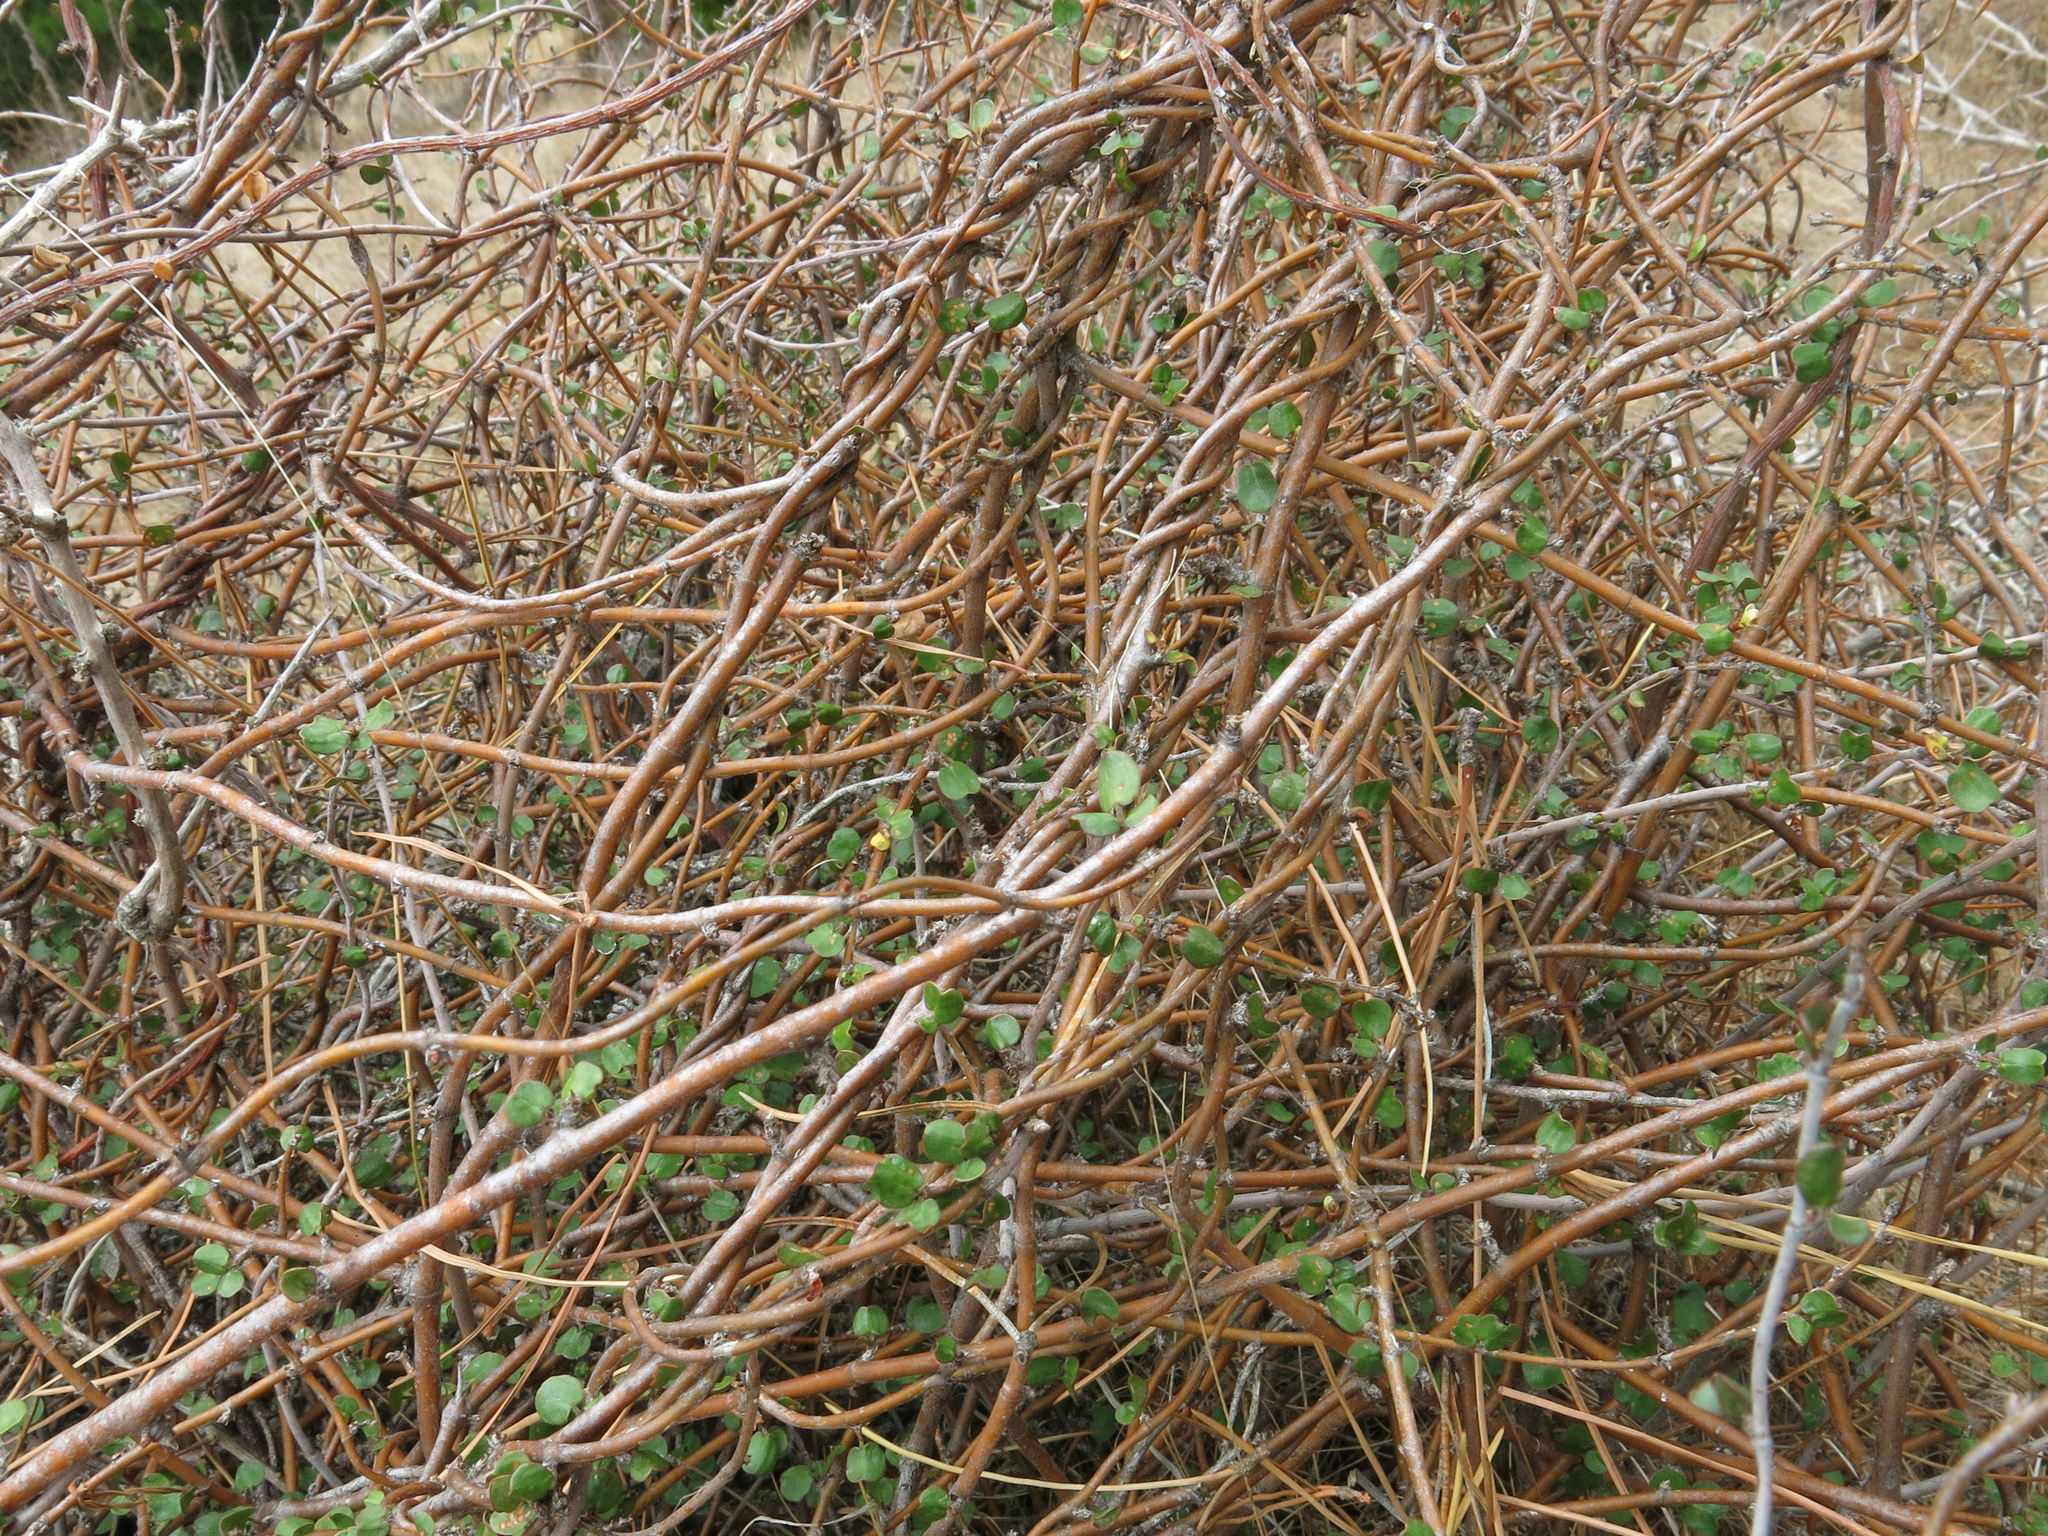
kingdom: Plantae
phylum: Tracheophyta
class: Magnoliopsida
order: Caryophyllales
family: Polygonaceae
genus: Muehlenbeckia
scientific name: Muehlenbeckia complexa
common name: Wireplant
